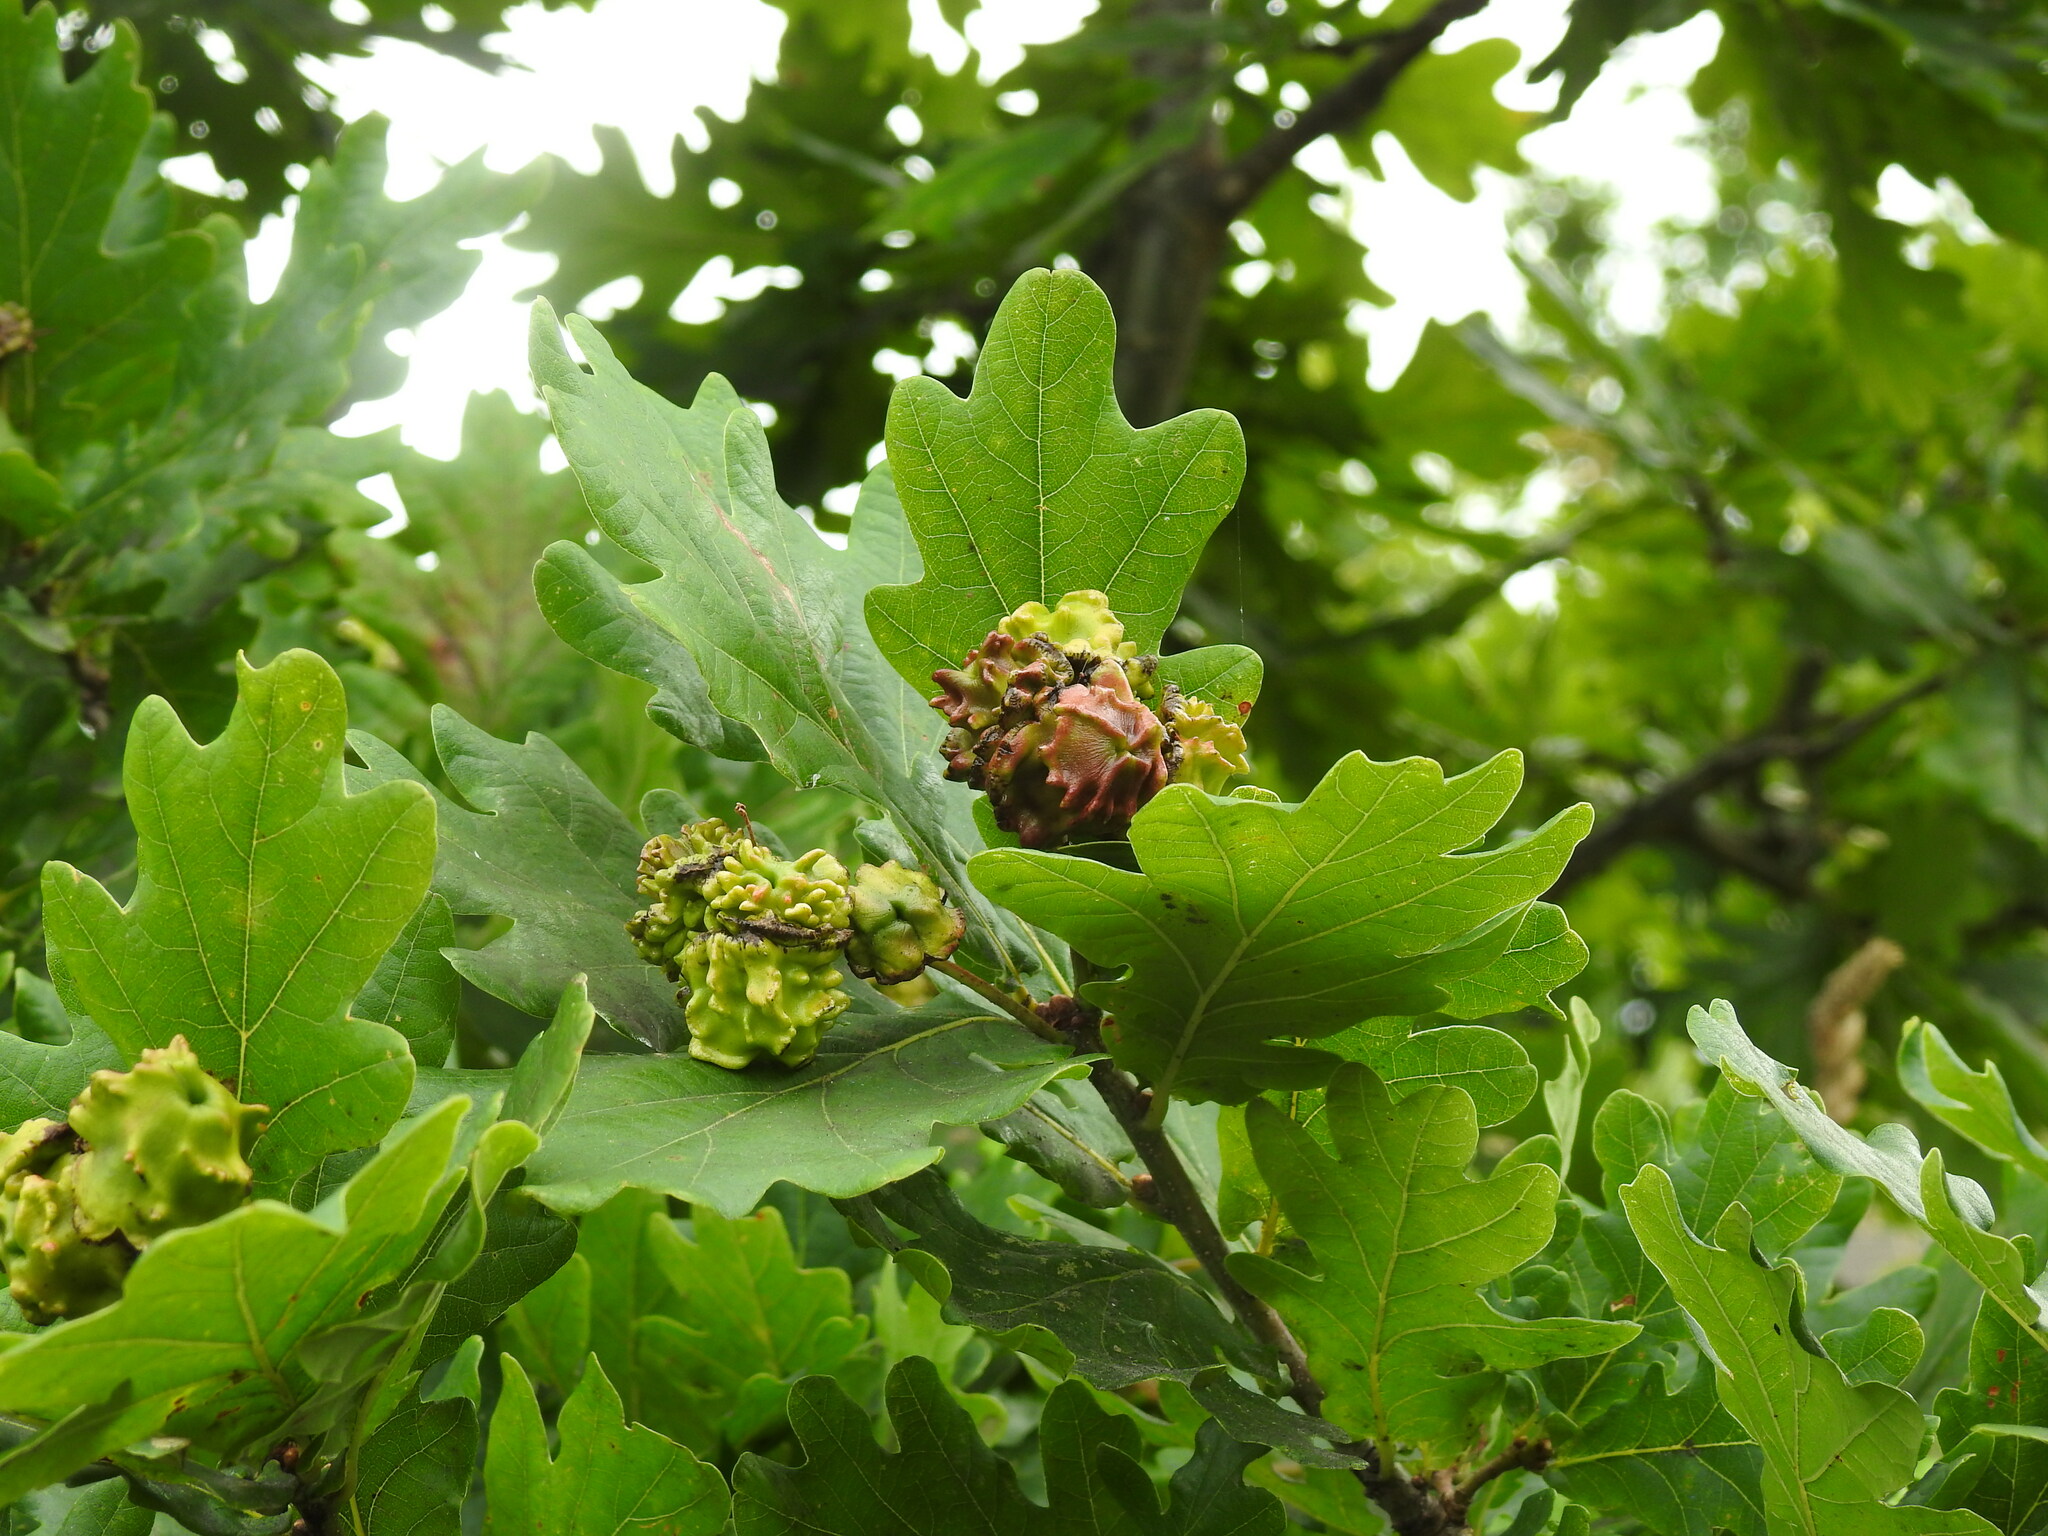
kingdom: Animalia
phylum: Arthropoda
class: Insecta
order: Hymenoptera
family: Cynipidae
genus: Andricus
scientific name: Andricus quercuscalicis
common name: Knopper gall
